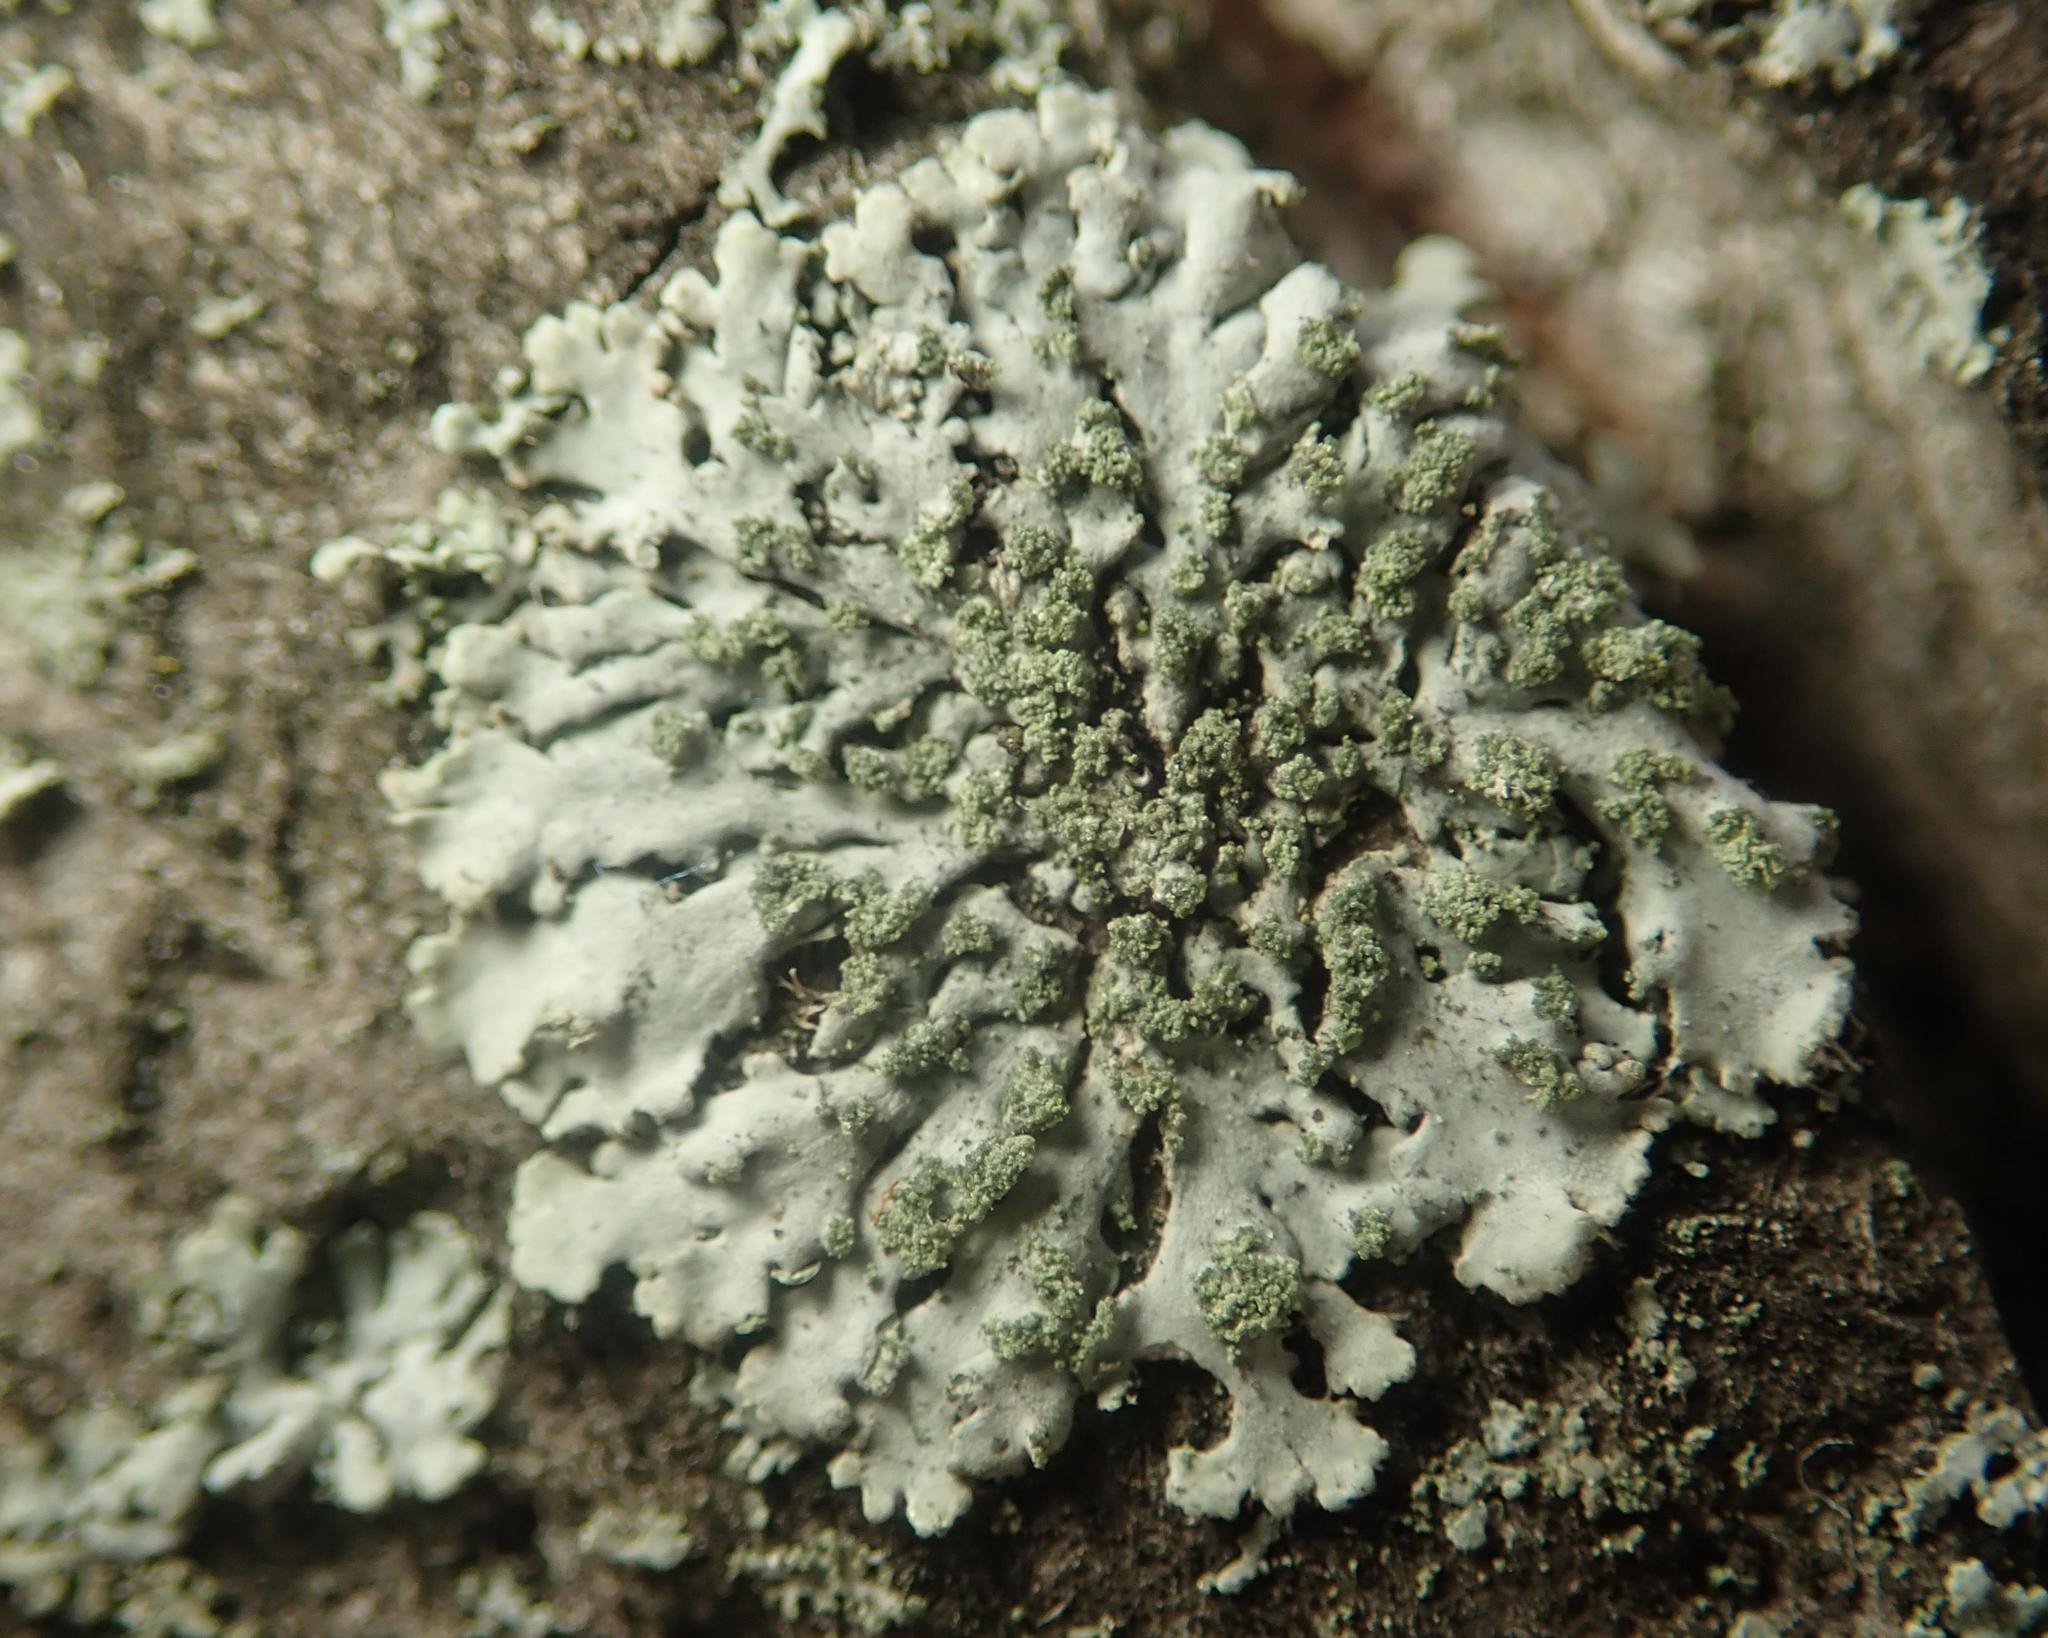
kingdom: Fungi
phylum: Ascomycota
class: Lecanoromycetes
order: Caliciales
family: Physciaceae
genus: Phaeophyscia
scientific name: Phaeophyscia orbicularis
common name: Mealy shadow lichen
